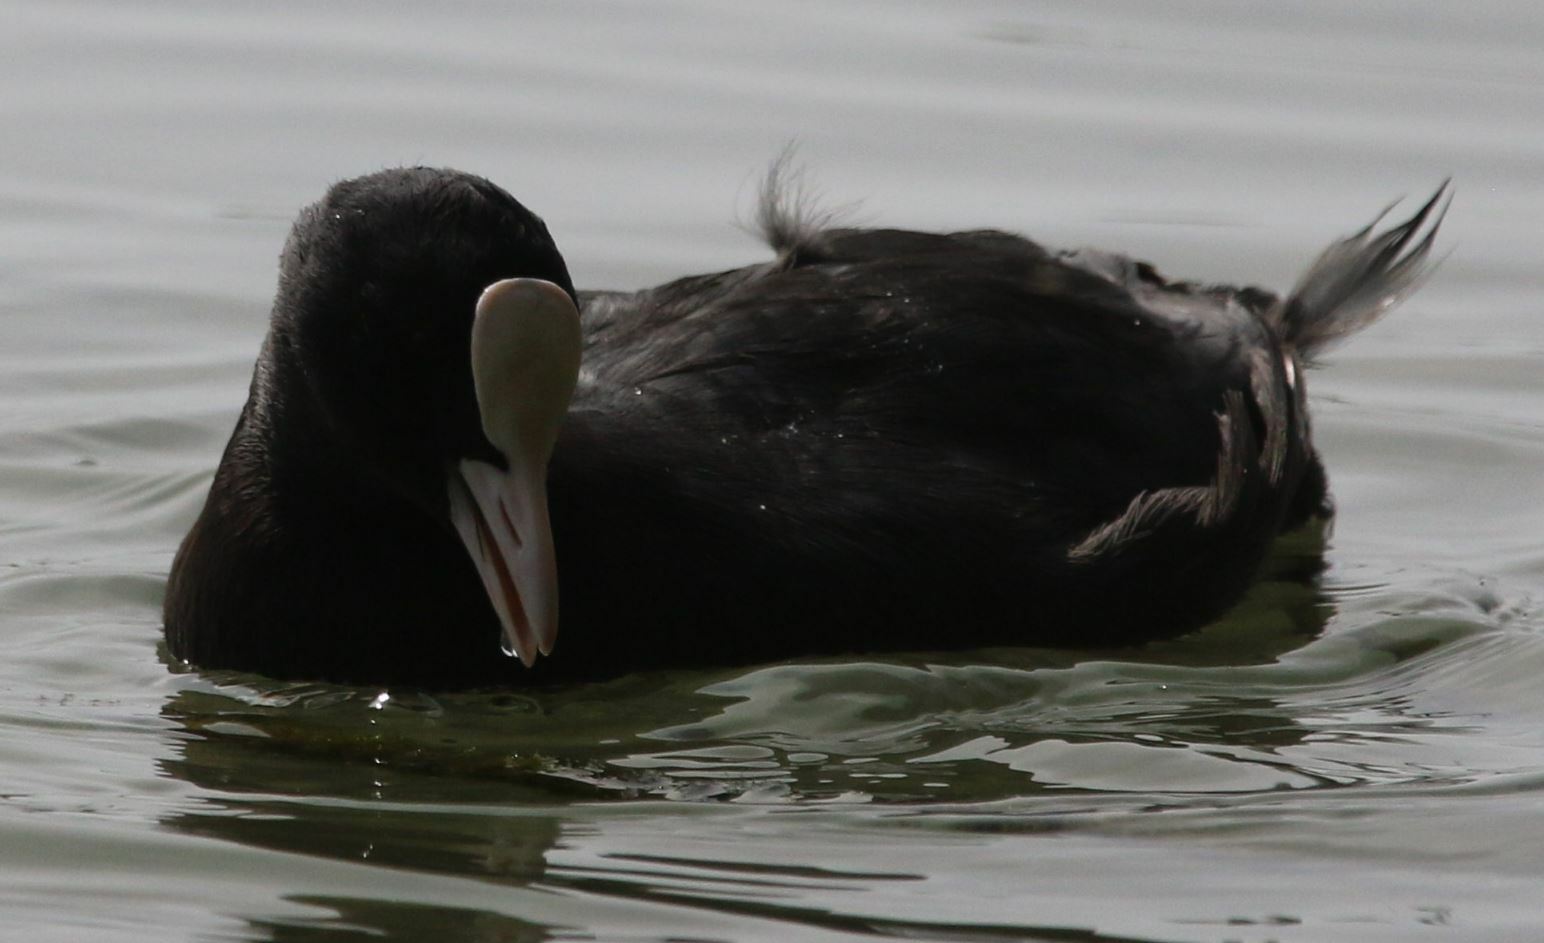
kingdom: Animalia
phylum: Chordata
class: Aves
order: Gruiformes
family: Rallidae
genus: Fulica
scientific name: Fulica atra
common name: Eurasian coot
